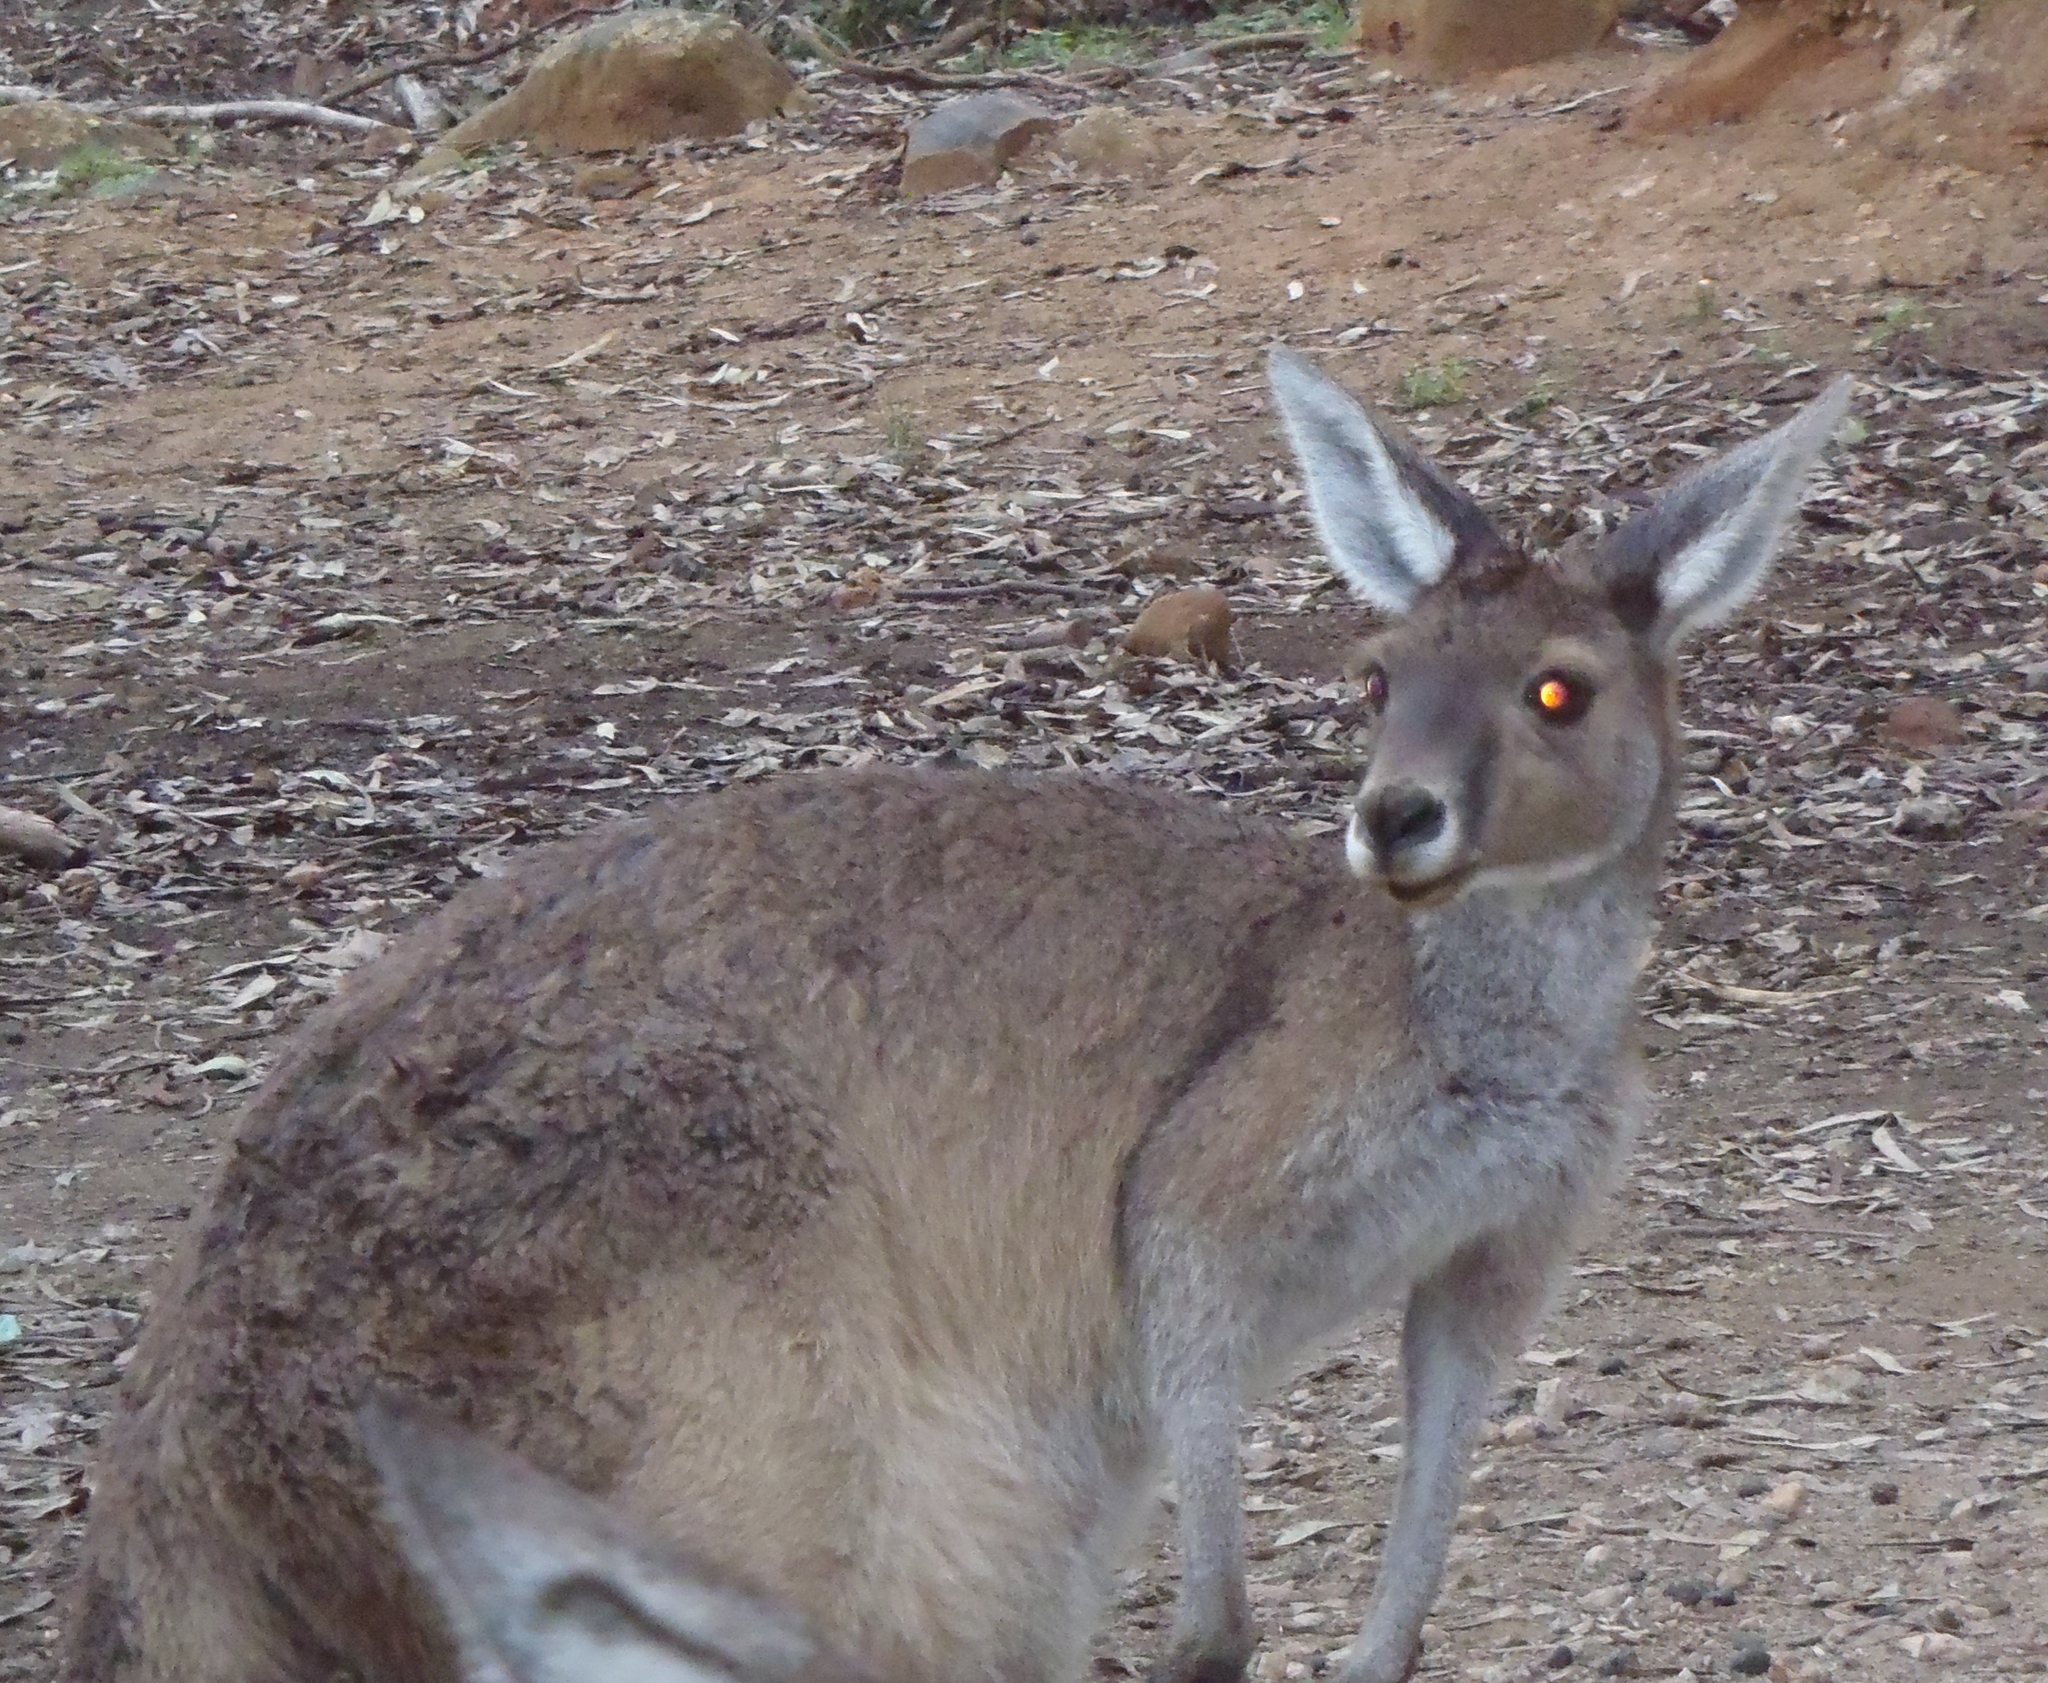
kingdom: Animalia
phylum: Chordata
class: Mammalia
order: Diprotodontia
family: Macropodidae
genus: Macropus
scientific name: Macropus fuliginosus
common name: Western grey kangaroo
